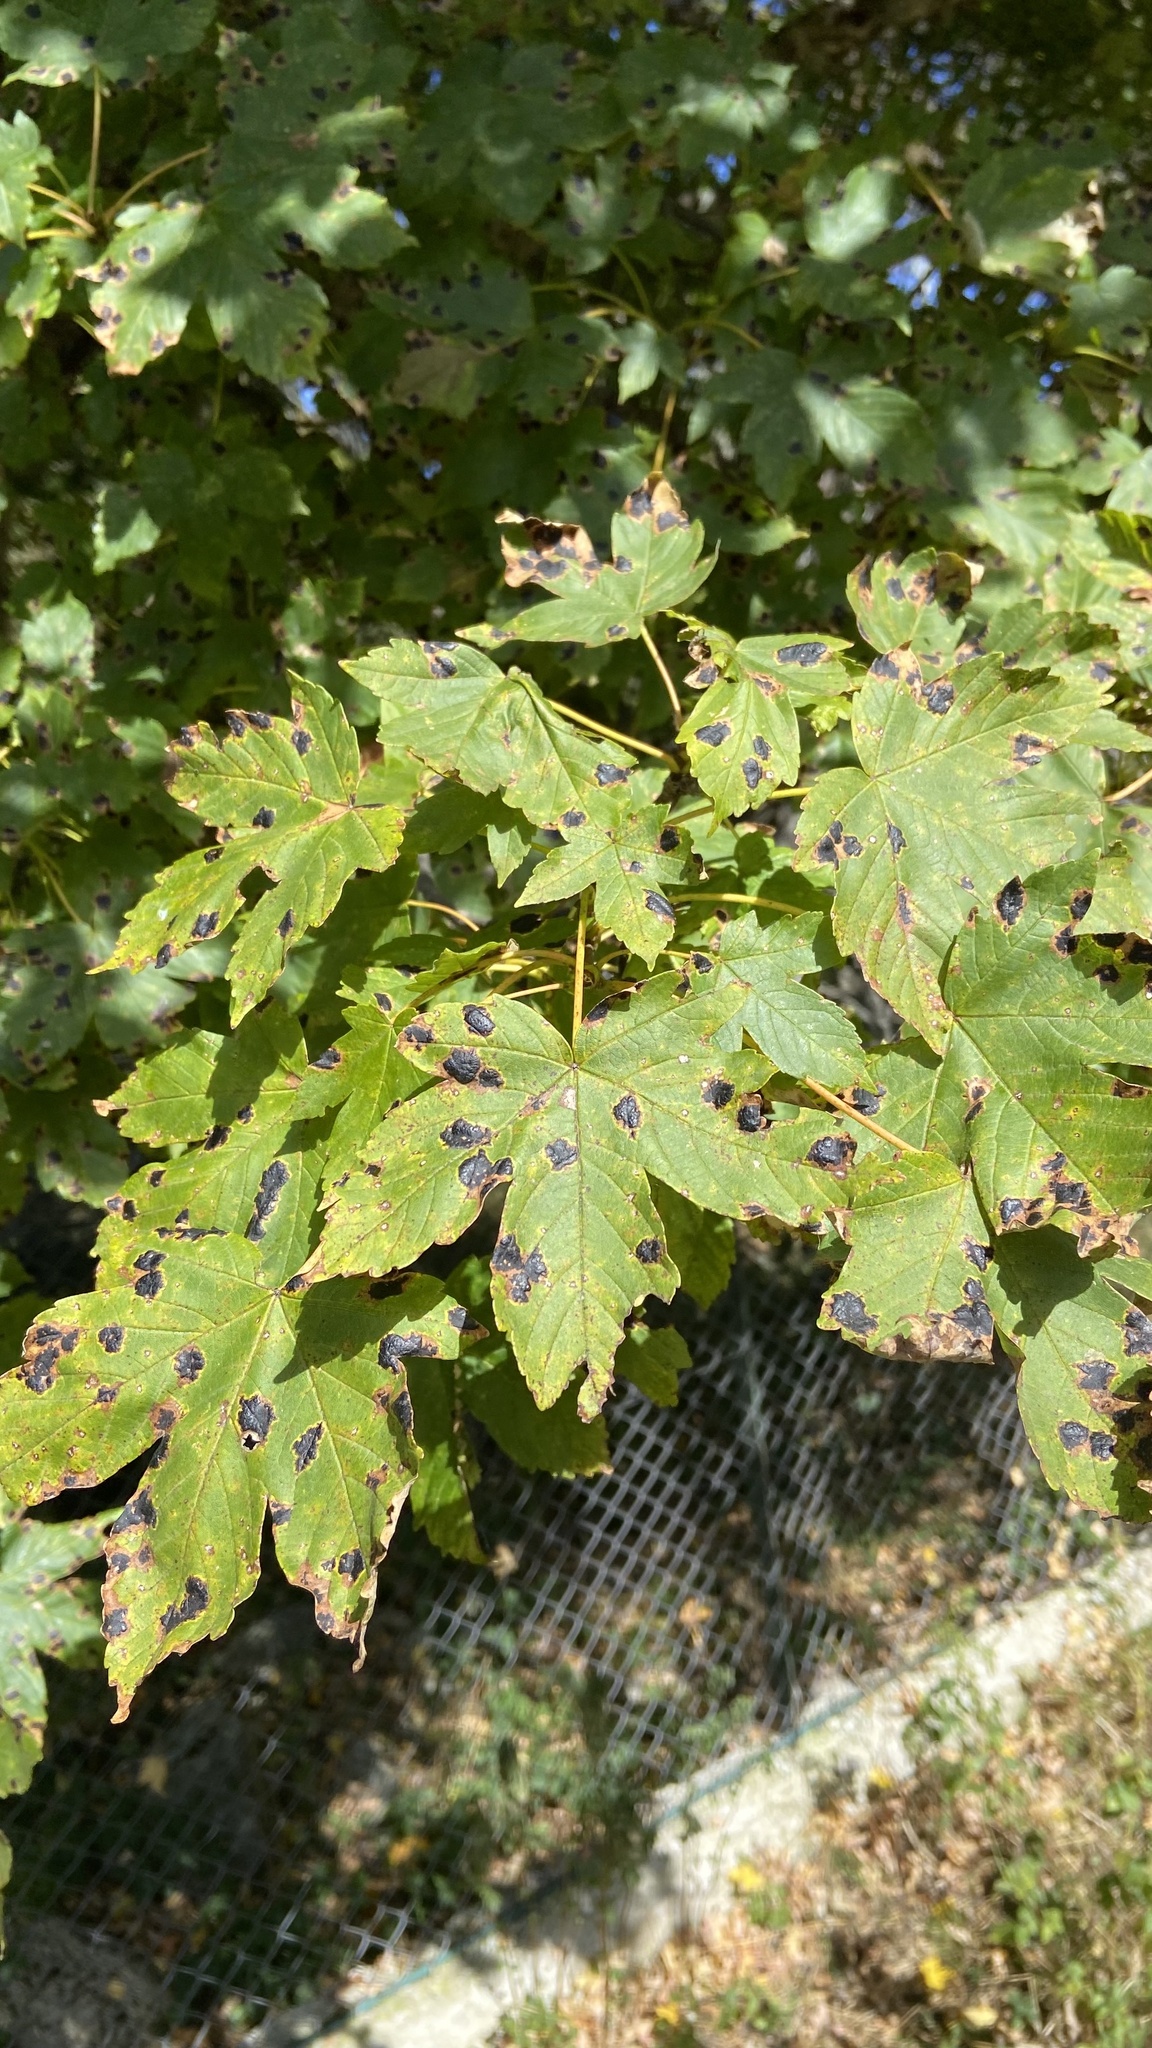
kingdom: Plantae
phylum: Tracheophyta
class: Magnoliopsida
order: Sapindales
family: Sapindaceae
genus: Acer
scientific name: Acer pseudoplatanus
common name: Sycamore
